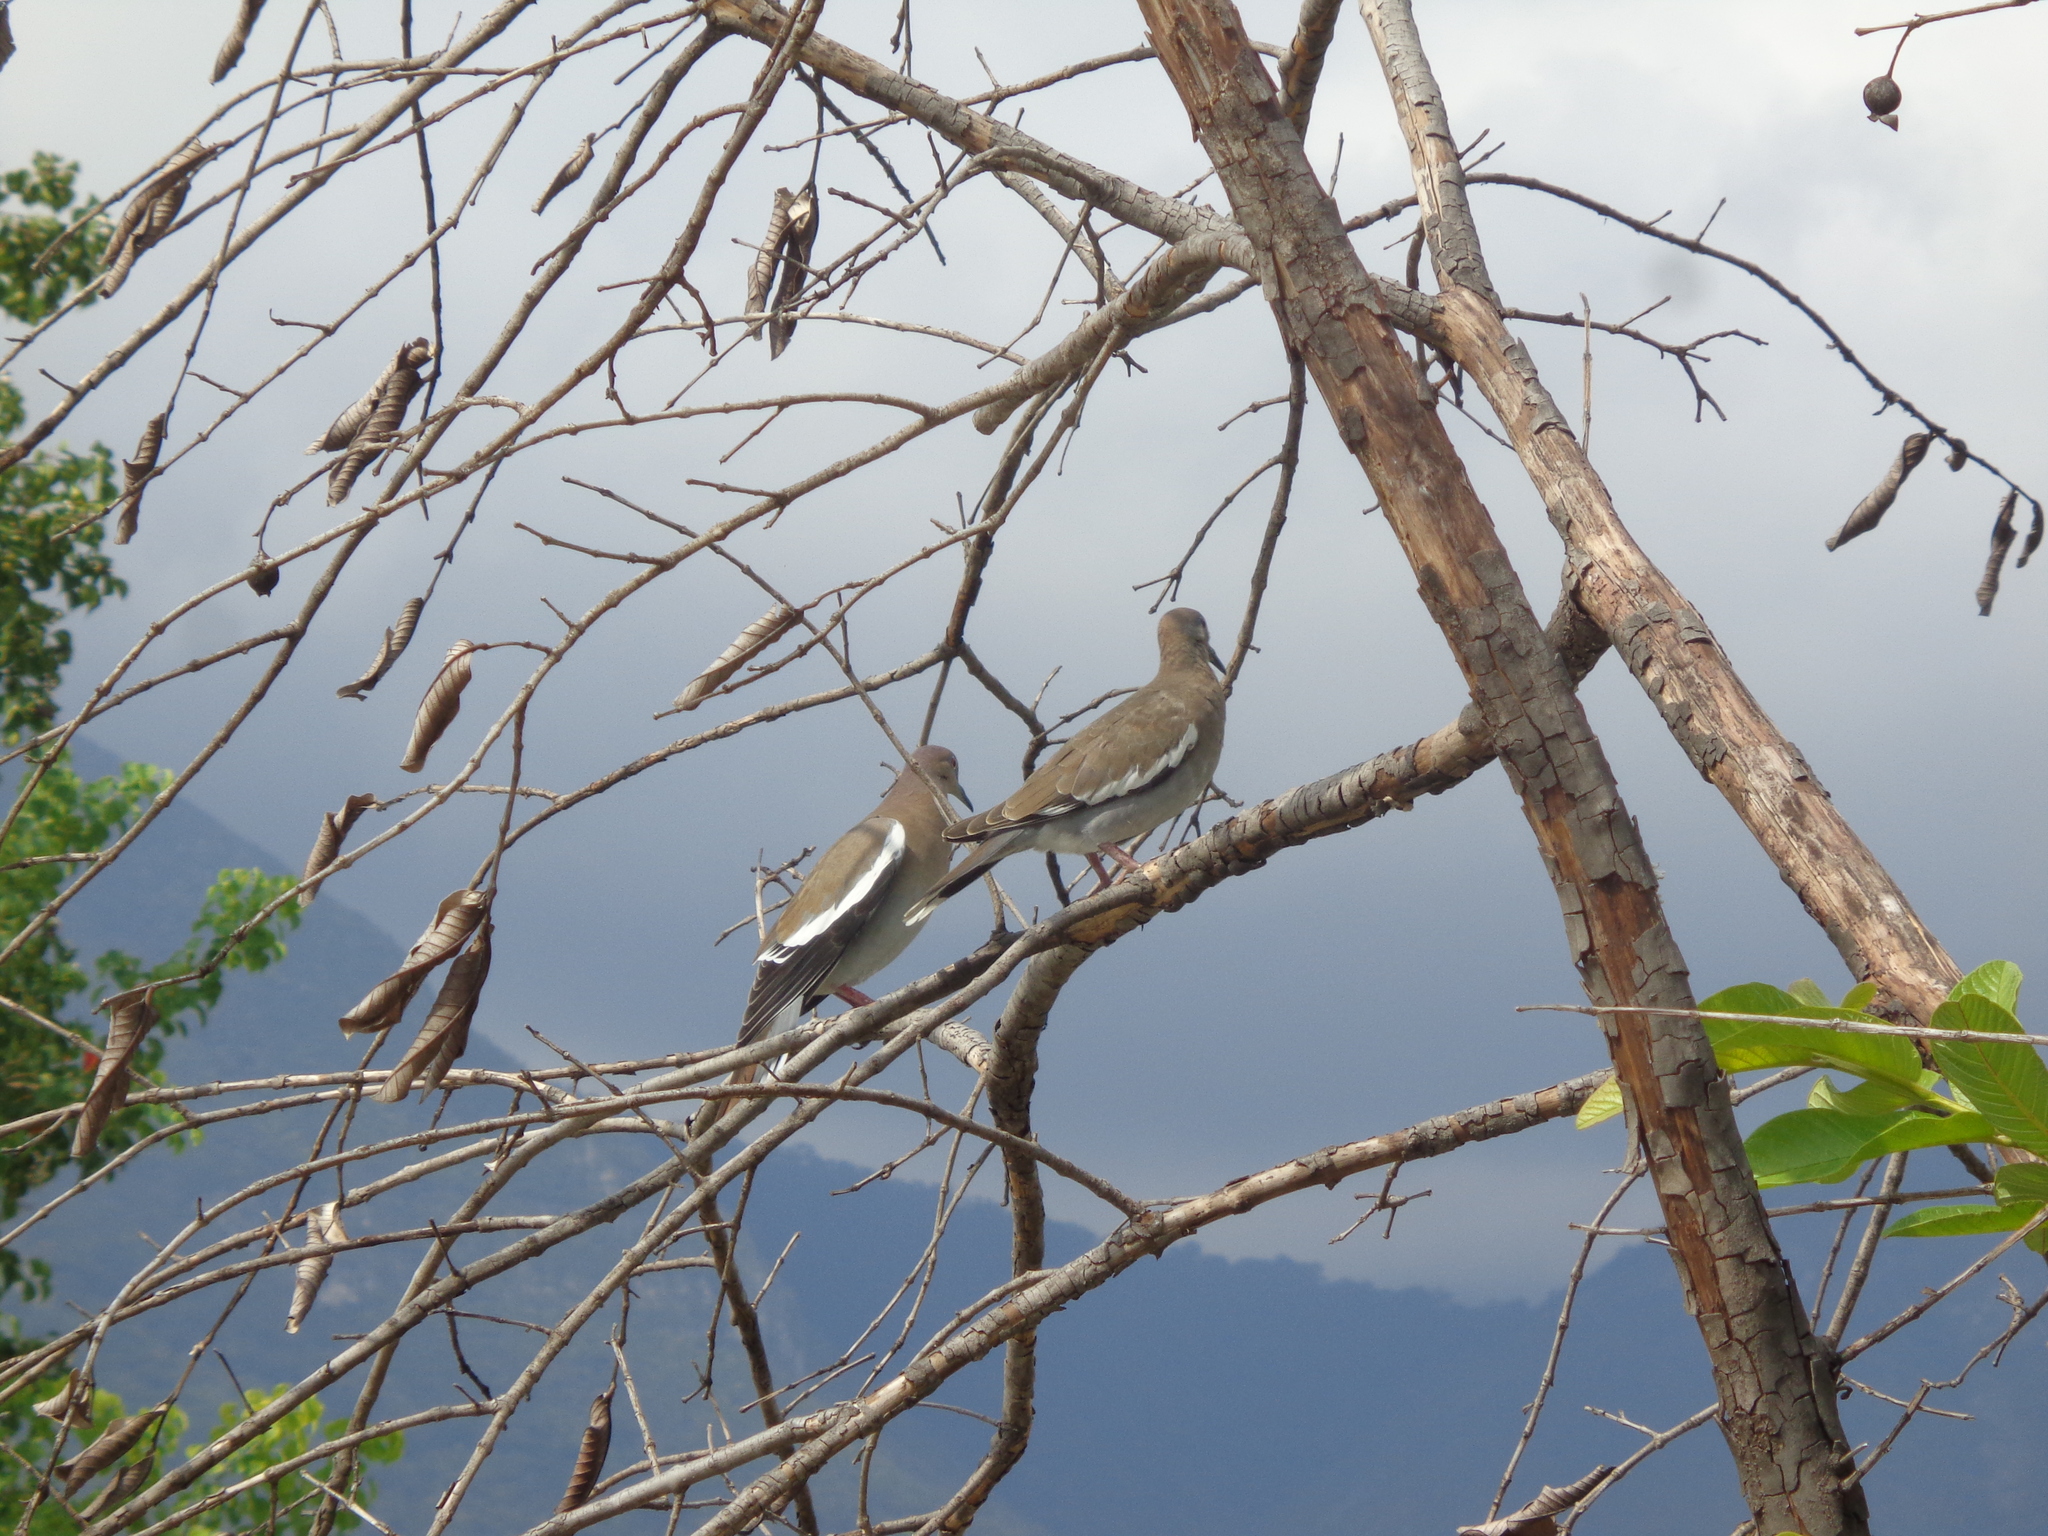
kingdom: Animalia
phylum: Chordata
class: Aves
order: Columbiformes
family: Columbidae
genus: Zenaida
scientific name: Zenaida asiatica
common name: White-winged dove
